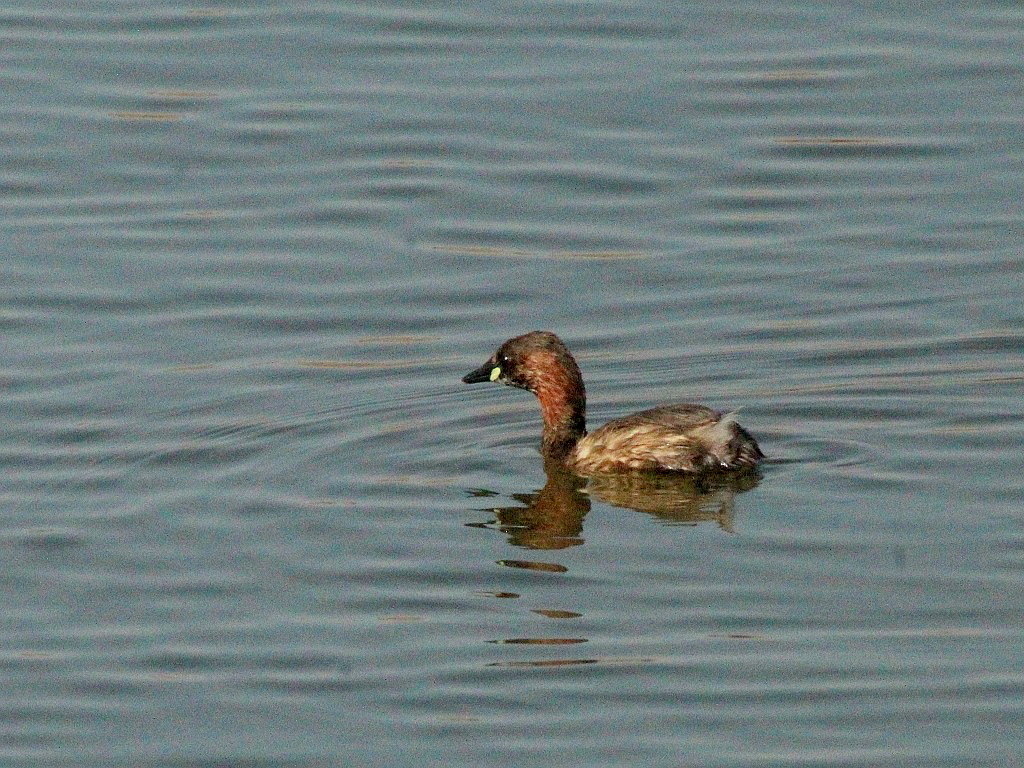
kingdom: Animalia
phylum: Chordata
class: Aves
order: Podicipediformes
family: Podicipedidae
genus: Tachybaptus
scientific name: Tachybaptus ruficollis
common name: Little grebe
